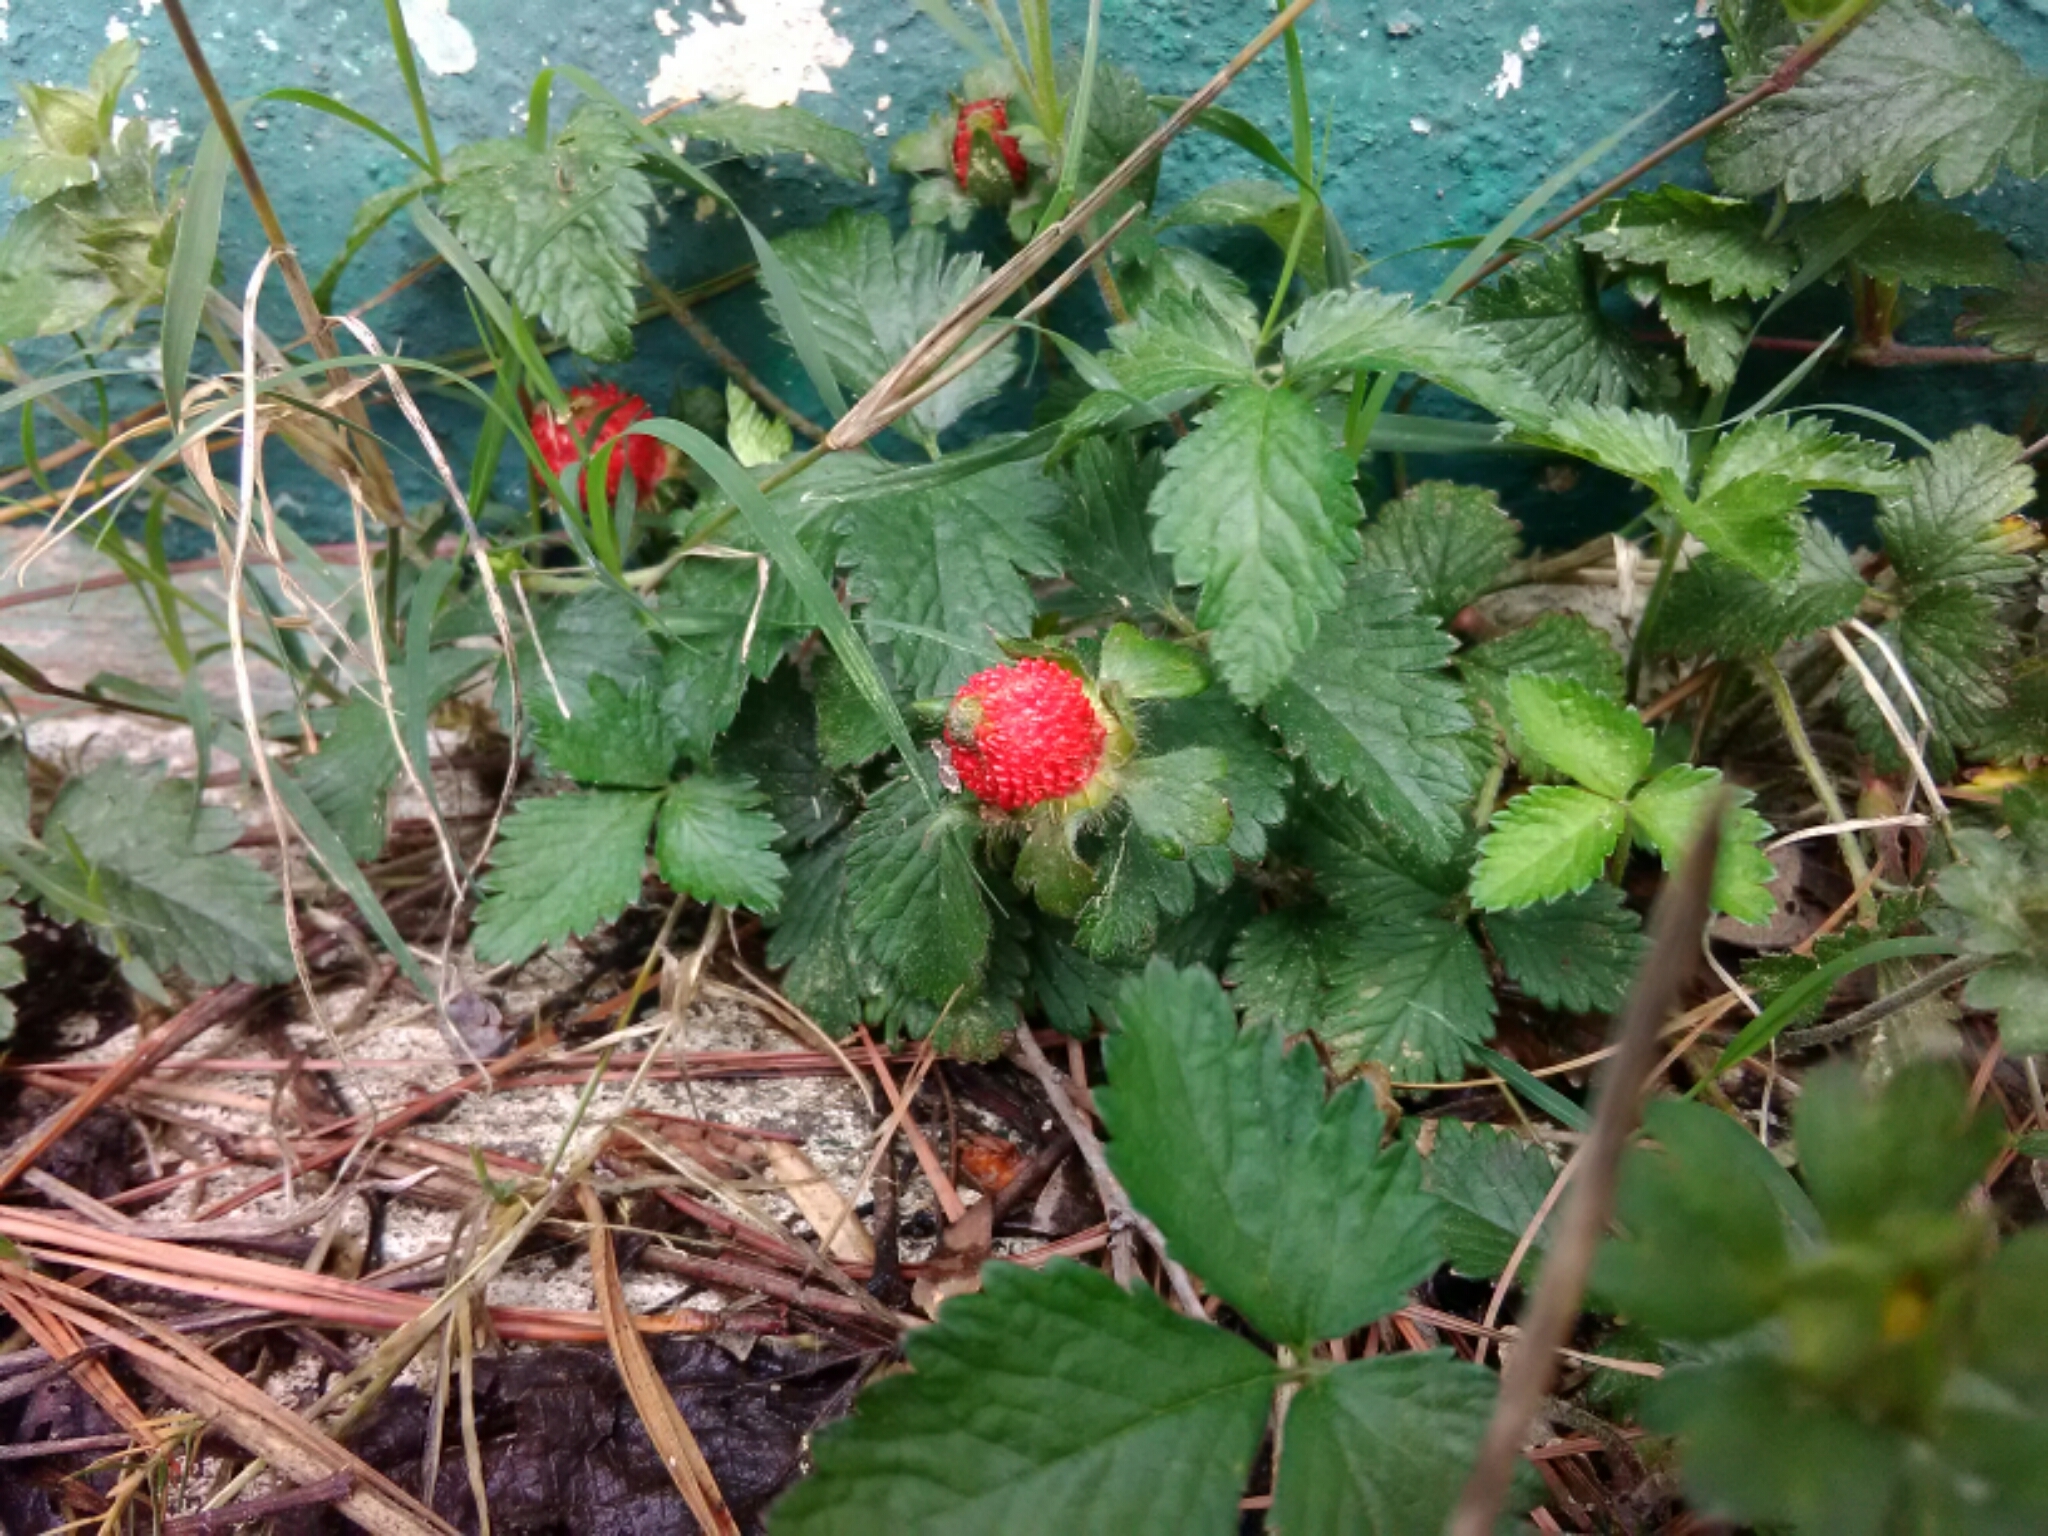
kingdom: Plantae
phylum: Tracheophyta
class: Magnoliopsida
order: Rosales
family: Rosaceae
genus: Potentilla
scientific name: Potentilla indica
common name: Yellow-flowered strawberry
